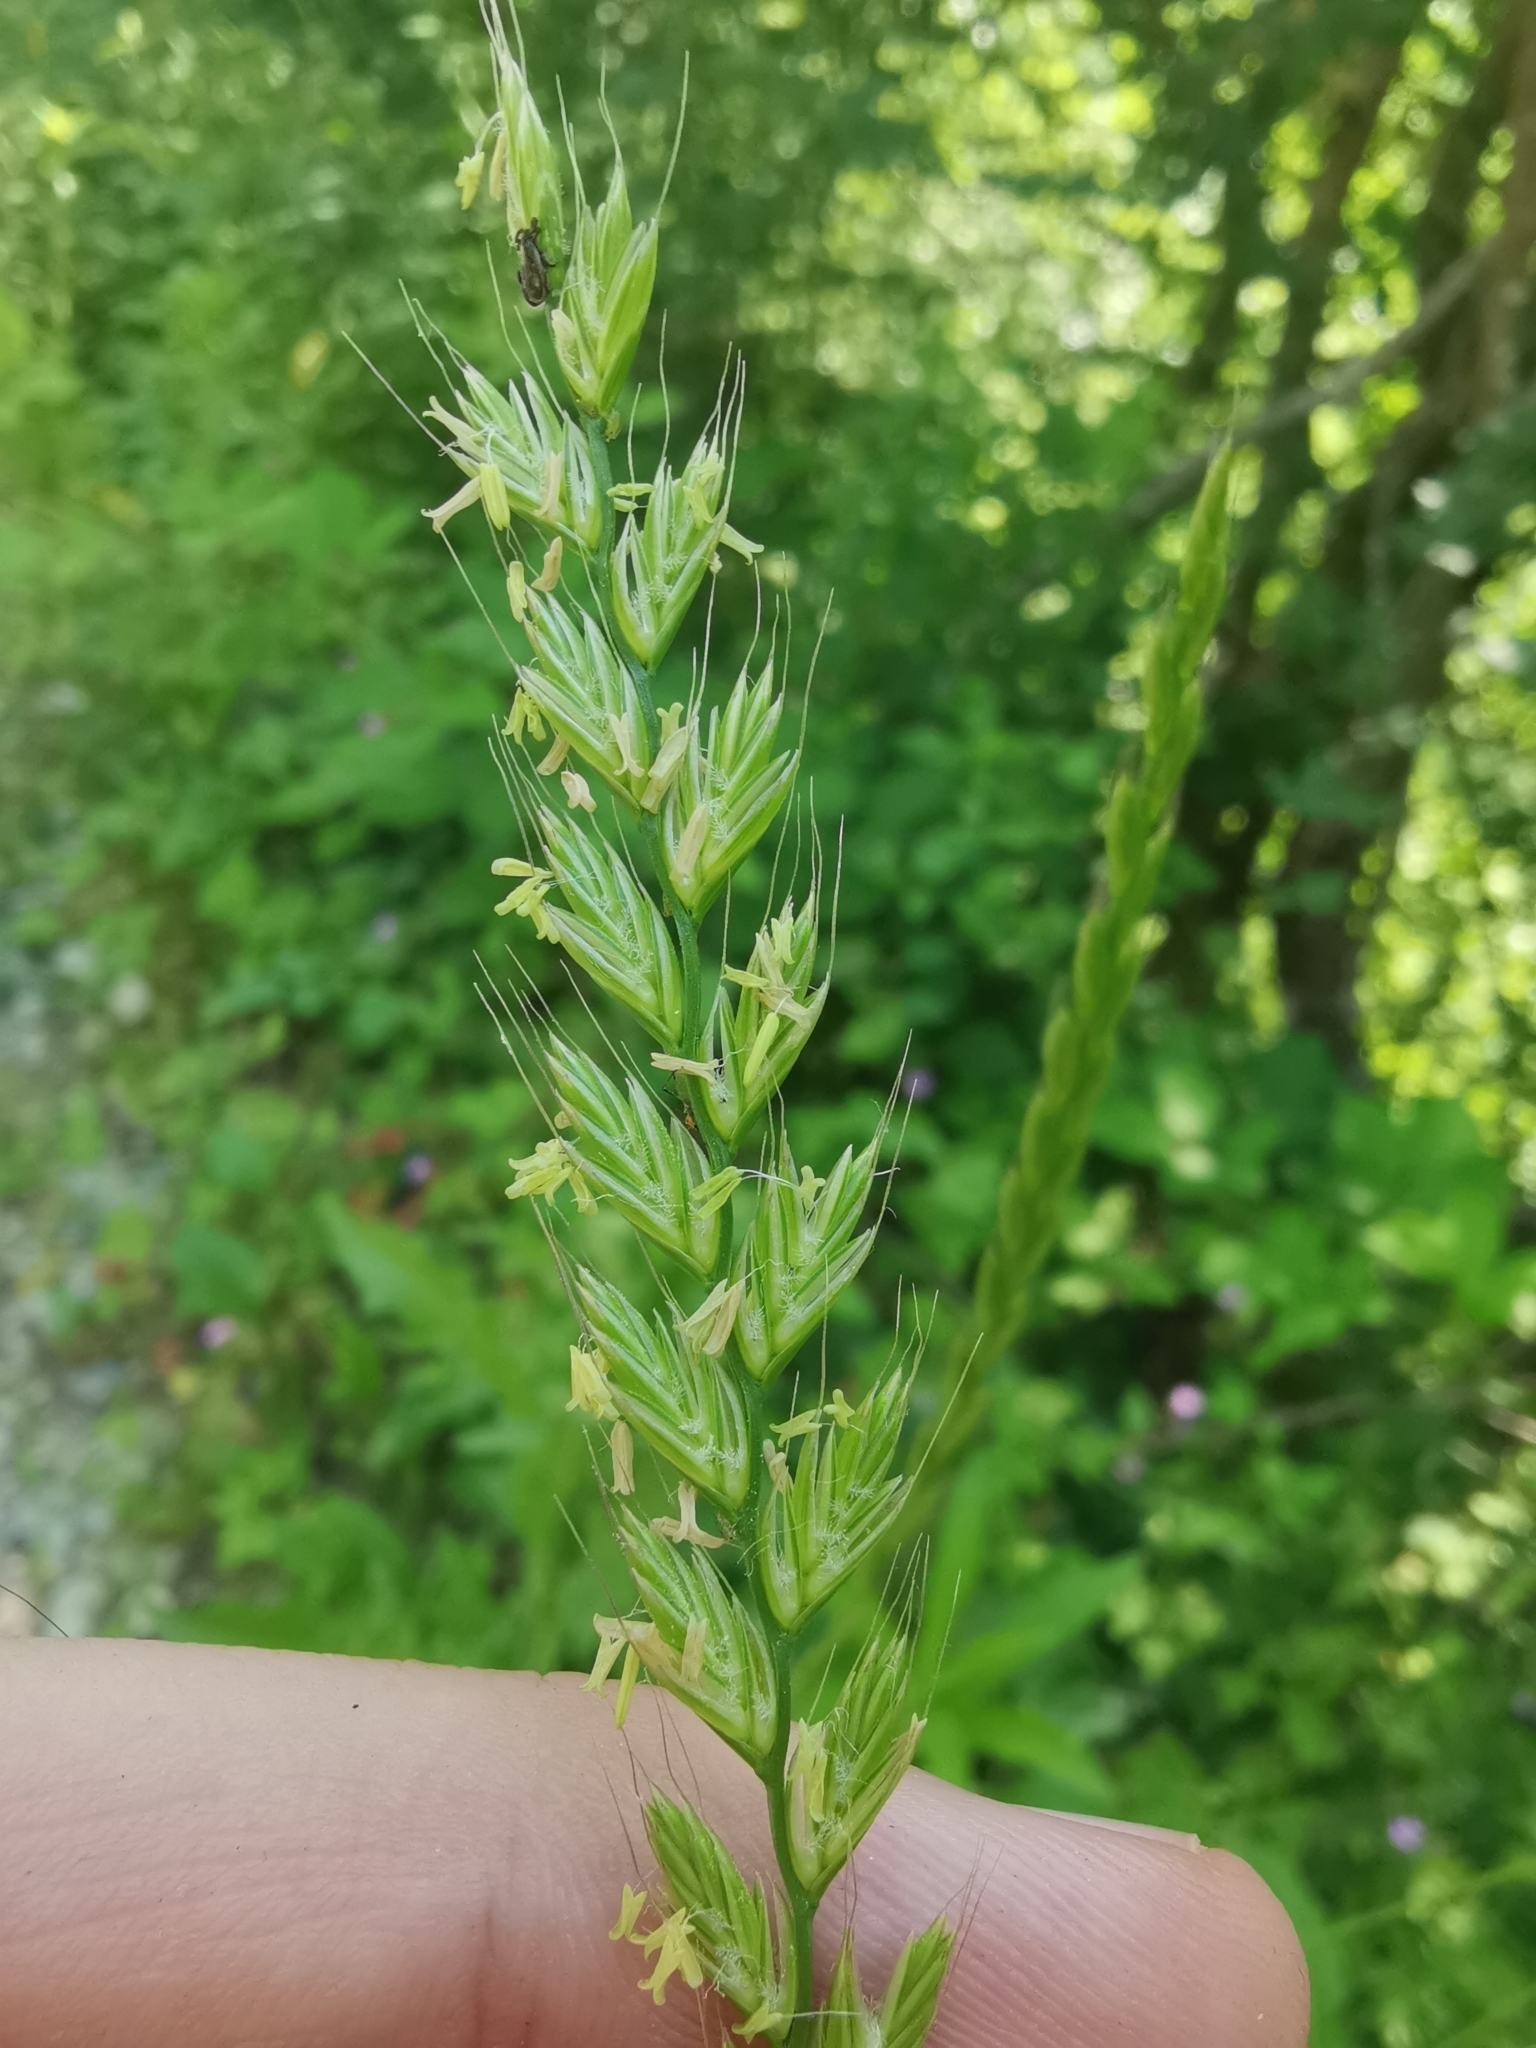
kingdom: Plantae
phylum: Tracheophyta
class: Liliopsida
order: Poales
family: Poaceae
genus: Lolium
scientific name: Lolium multiflorum
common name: Annual ryegrass
